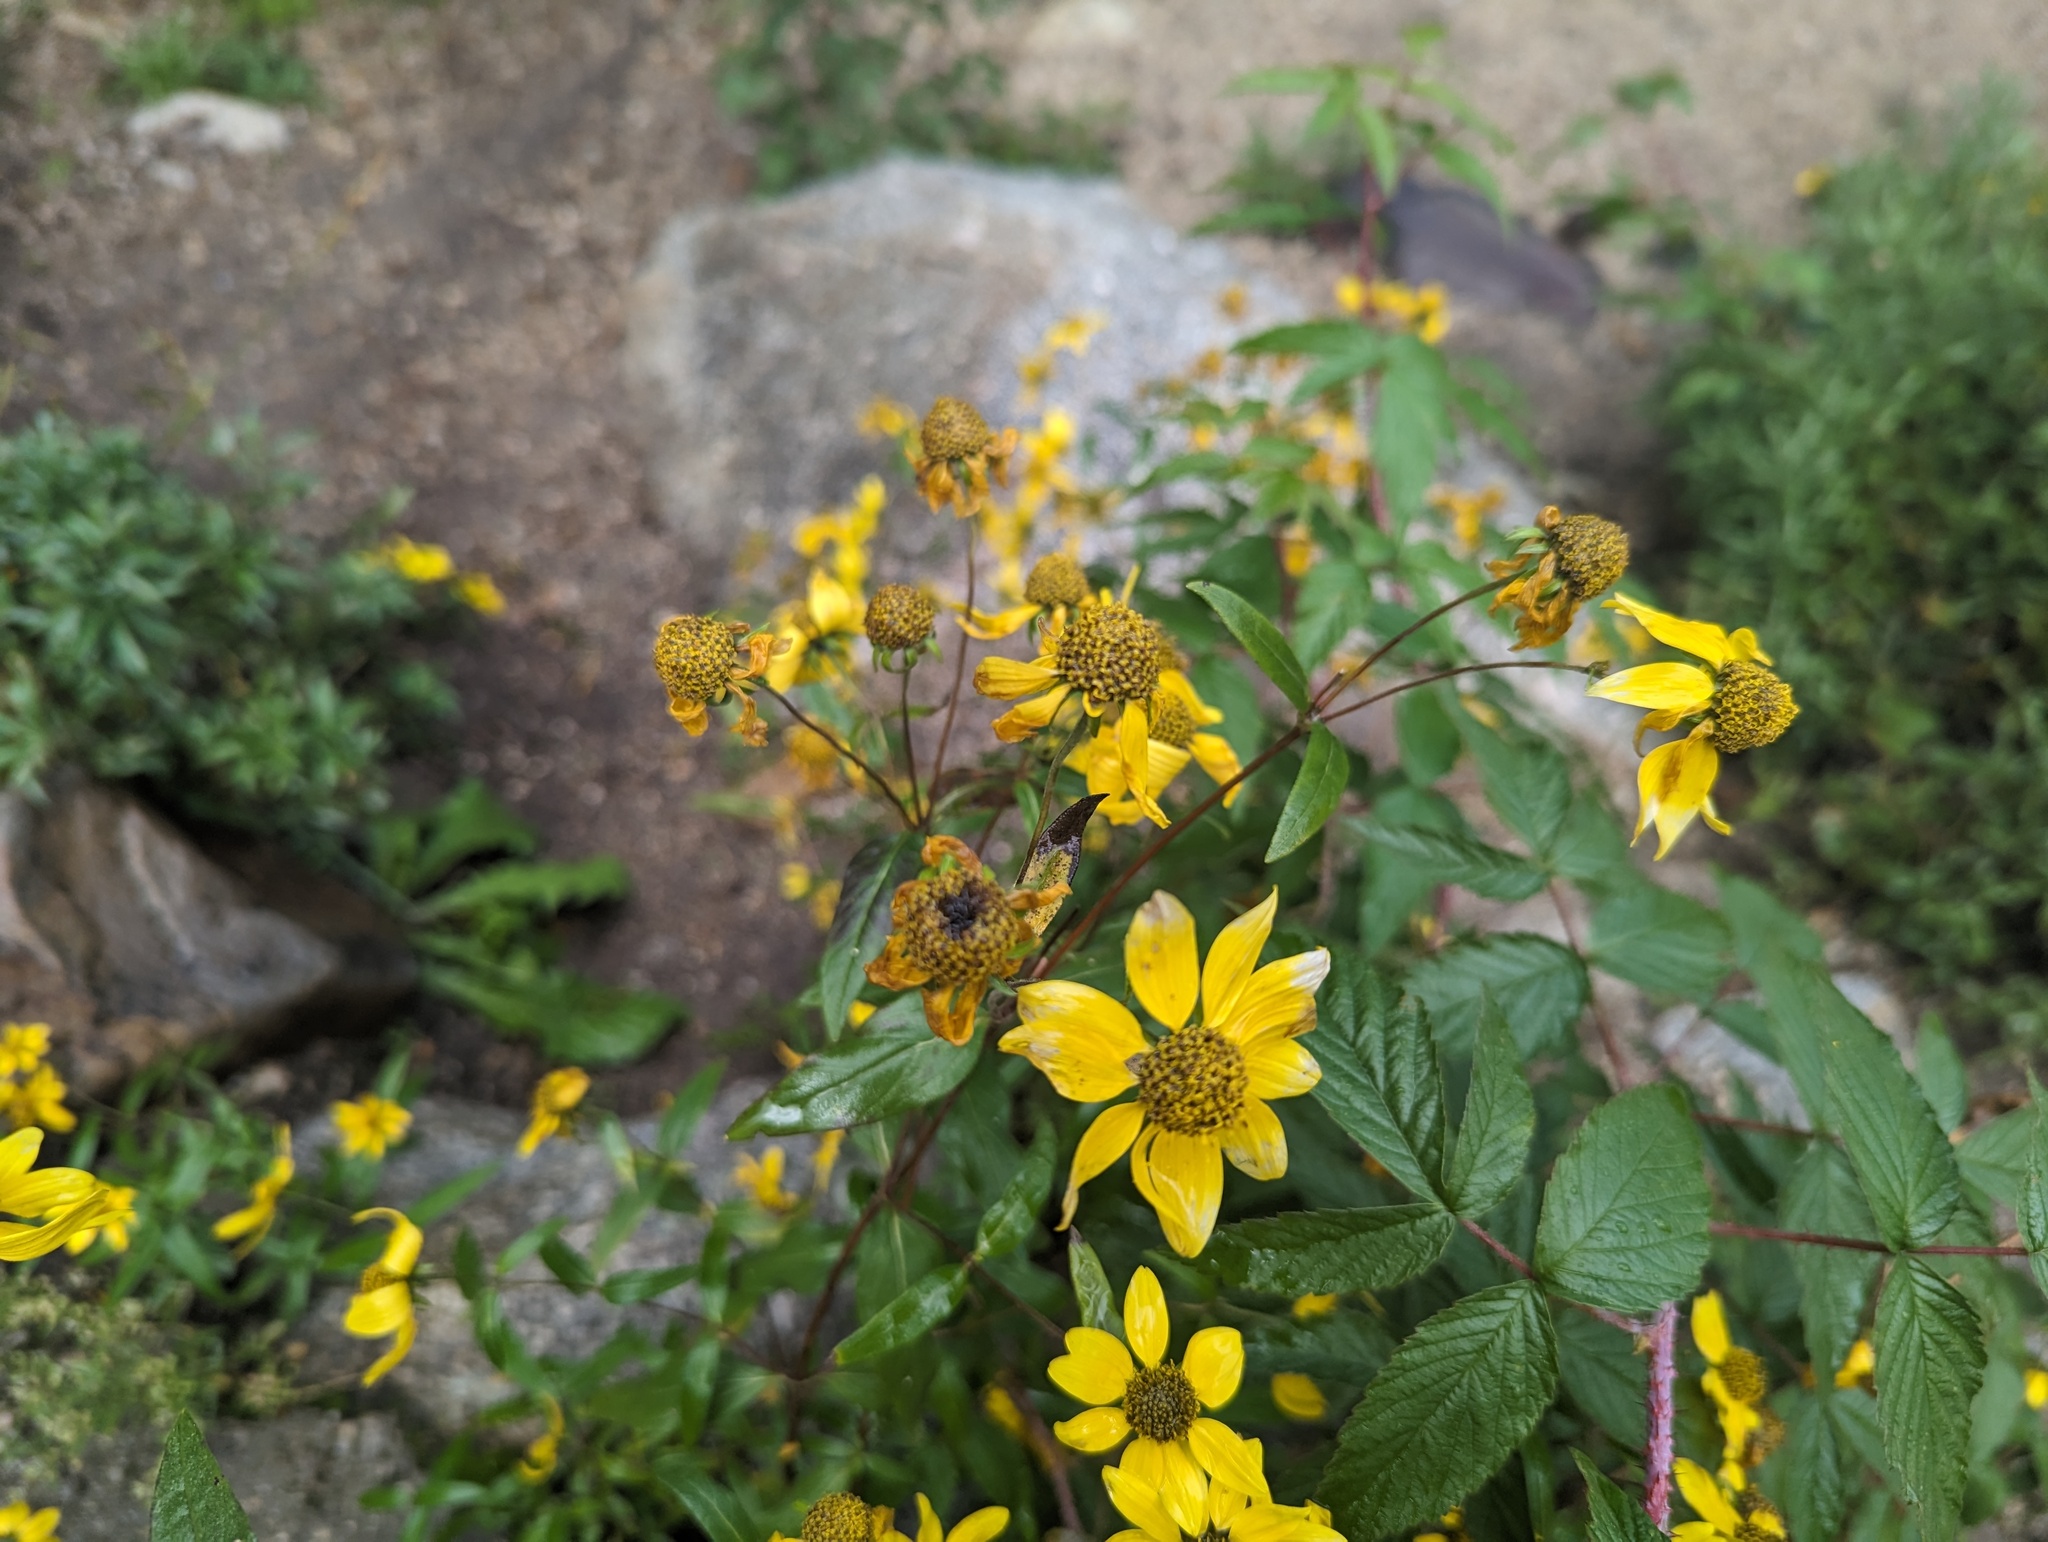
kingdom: Plantae
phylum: Tracheophyta
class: Magnoliopsida
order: Asterales
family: Asteraceae
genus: Heliomeris
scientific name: Heliomeris multiflora
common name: Showy goldeneye
